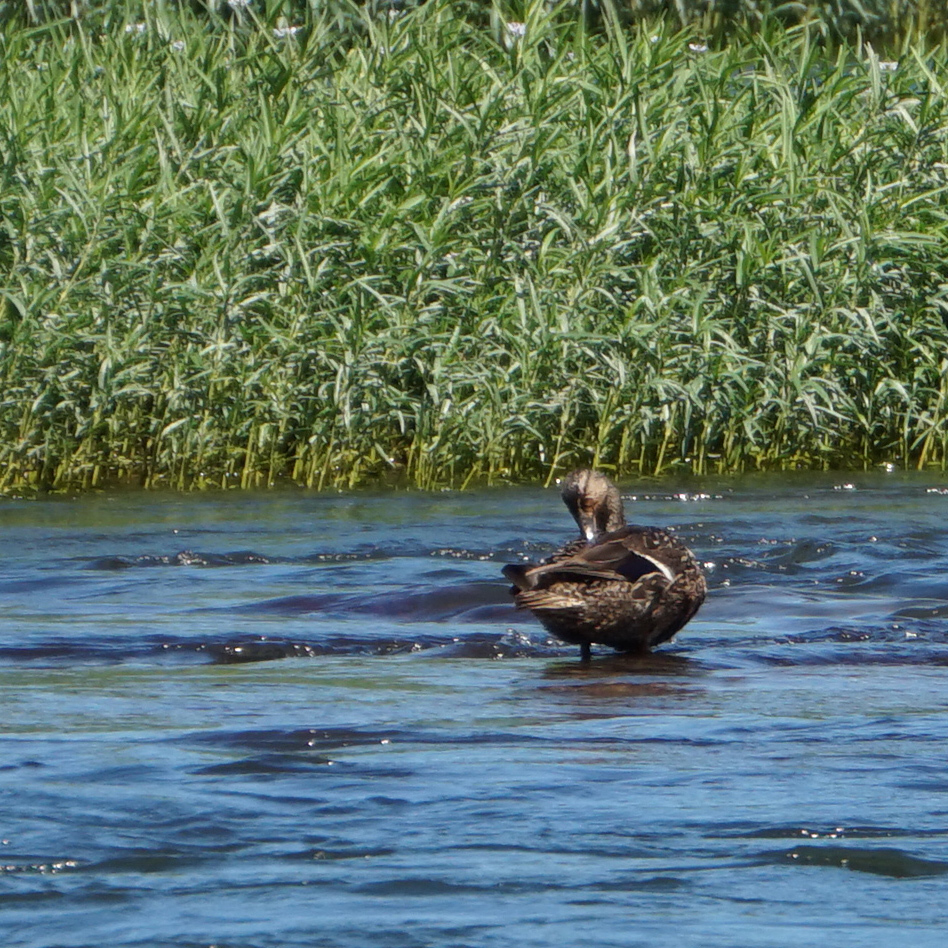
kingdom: Animalia
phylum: Chordata
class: Aves
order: Anseriformes
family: Anatidae
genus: Anas
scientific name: Anas platyrhynchos
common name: Mallard
